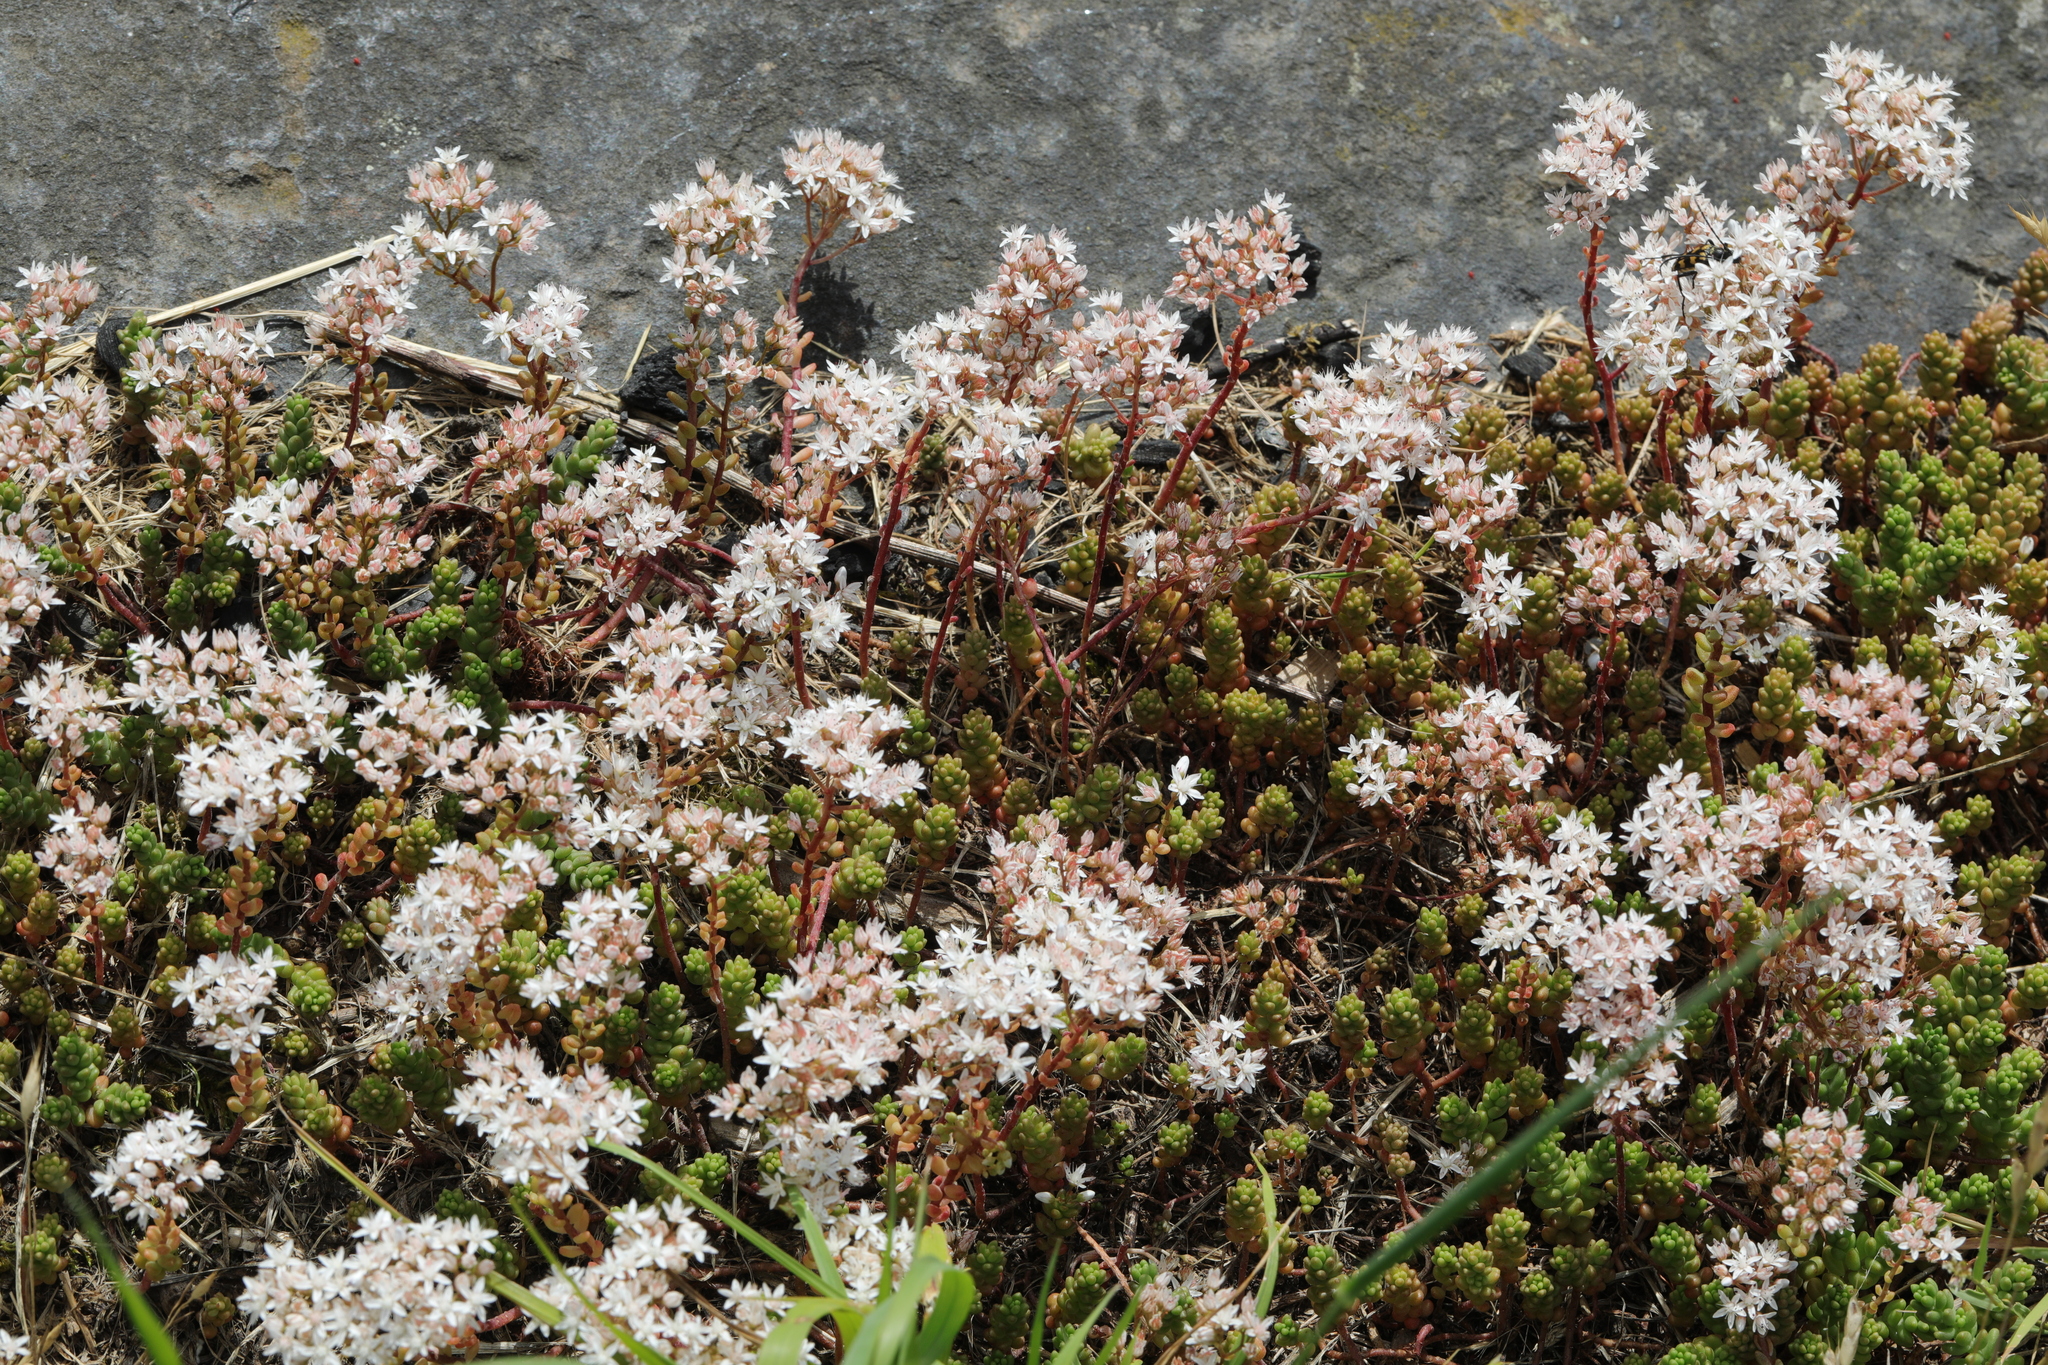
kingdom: Plantae
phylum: Tracheophyta
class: Magnoliopsida
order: Saxifragales
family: Crassulaceae
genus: Sedum
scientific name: Sedum album
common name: White stonecrop
